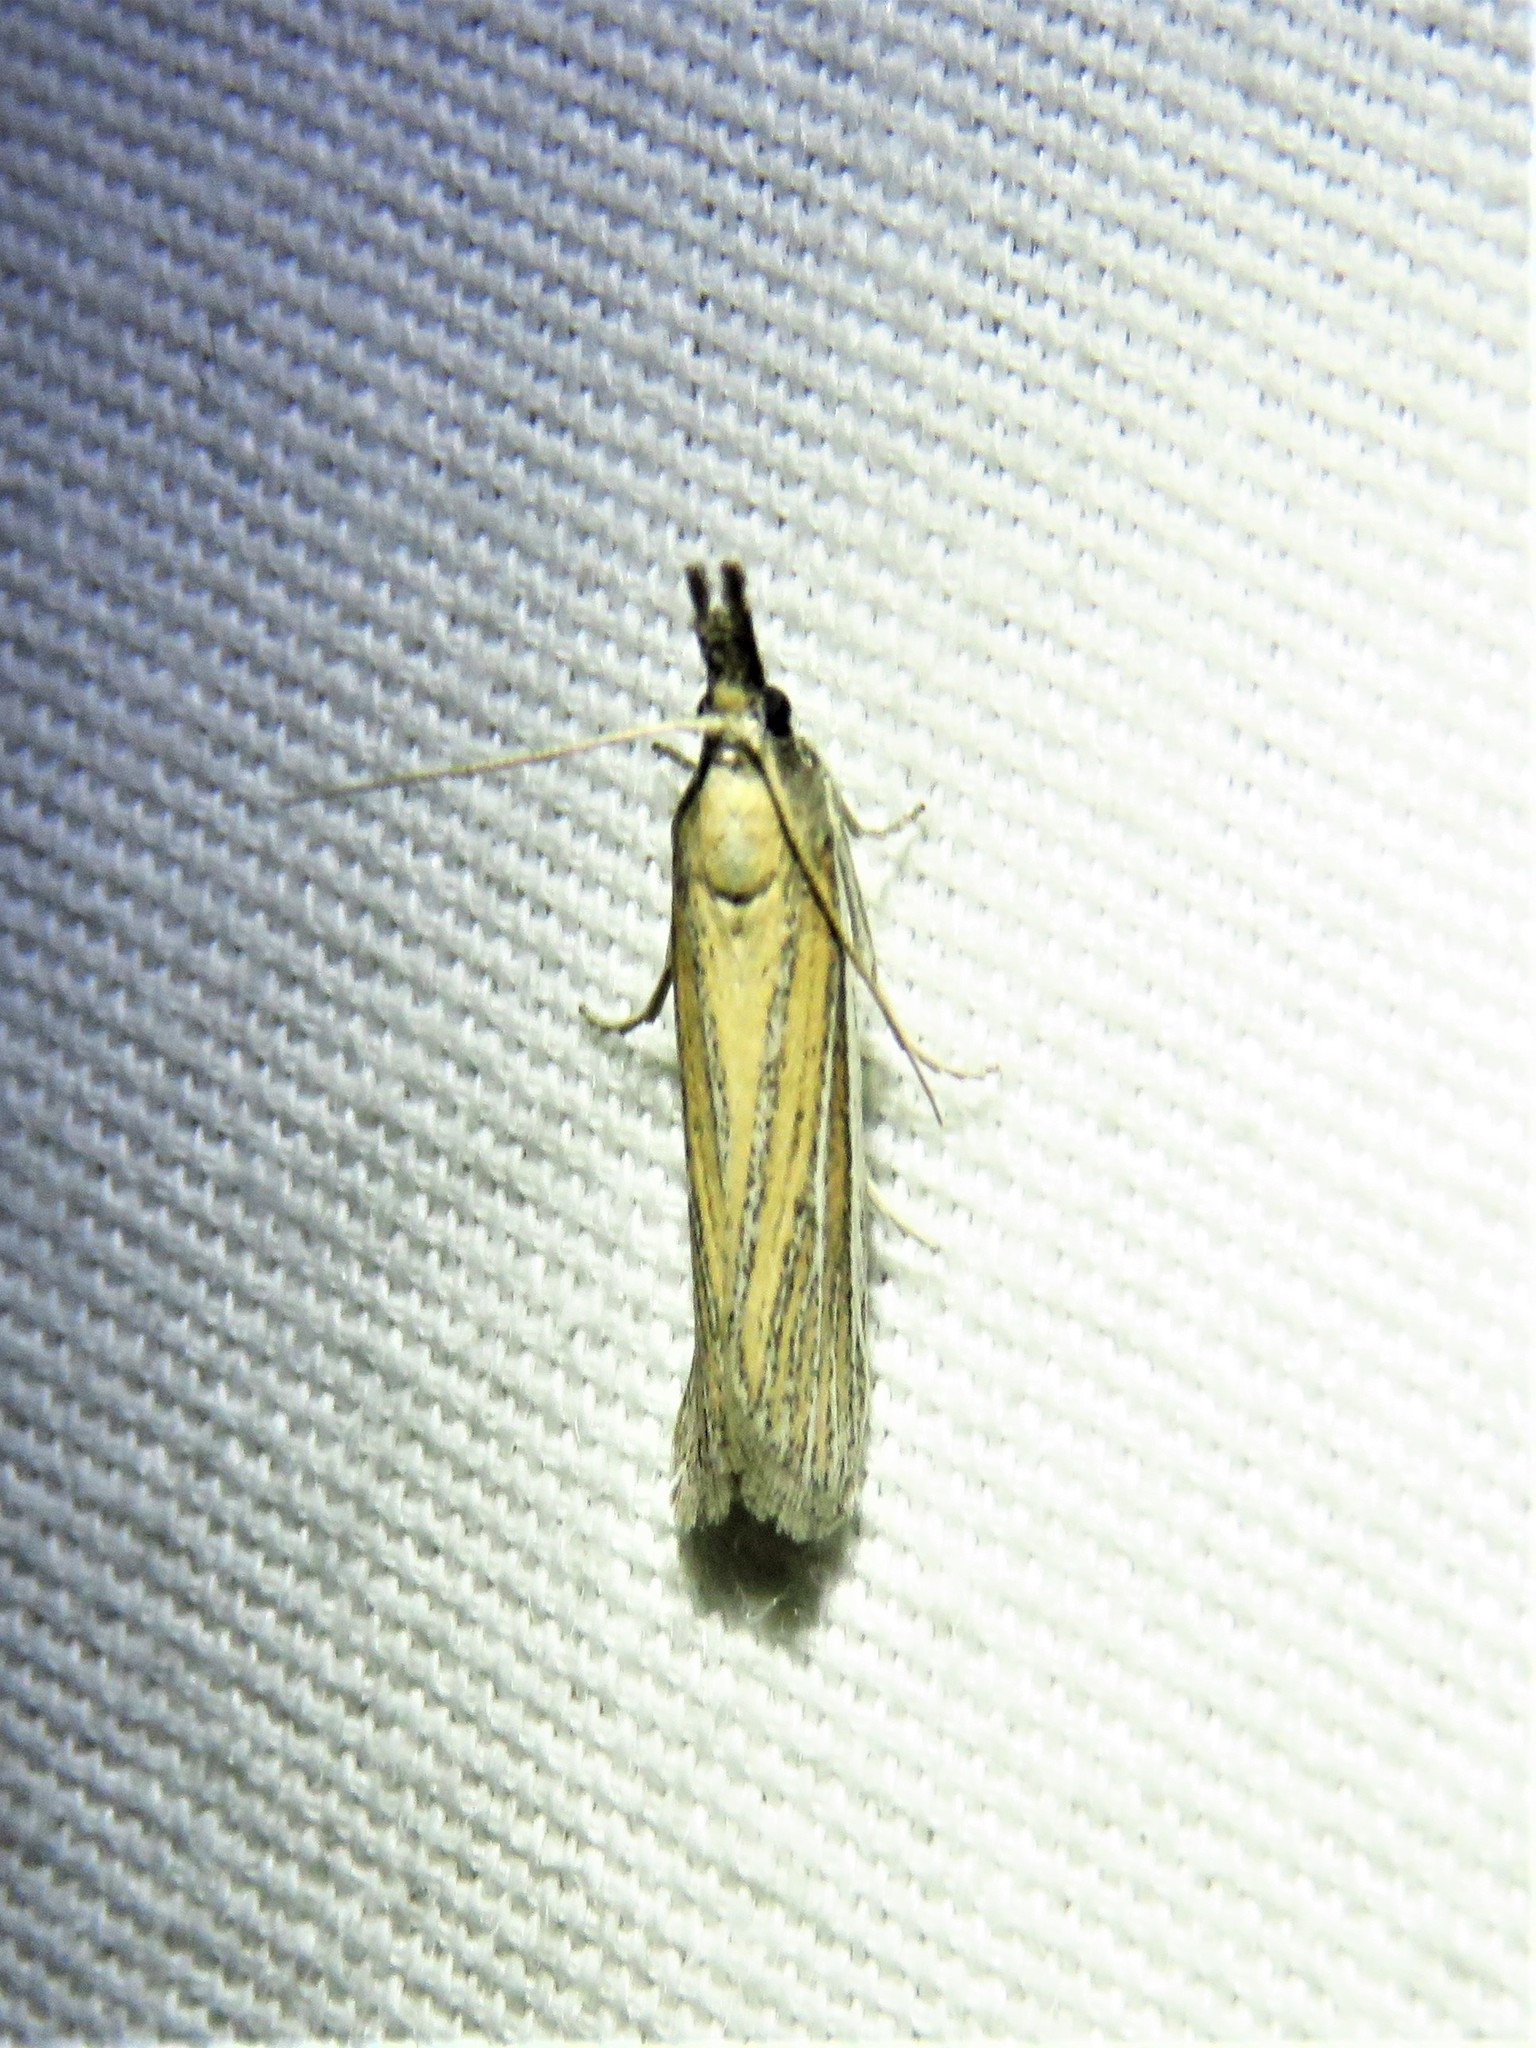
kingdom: Animalia
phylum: Arthropoda
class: Insecta
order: Lepidoptera
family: Pyralidae
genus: Peoria
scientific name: Peoria tetradella
